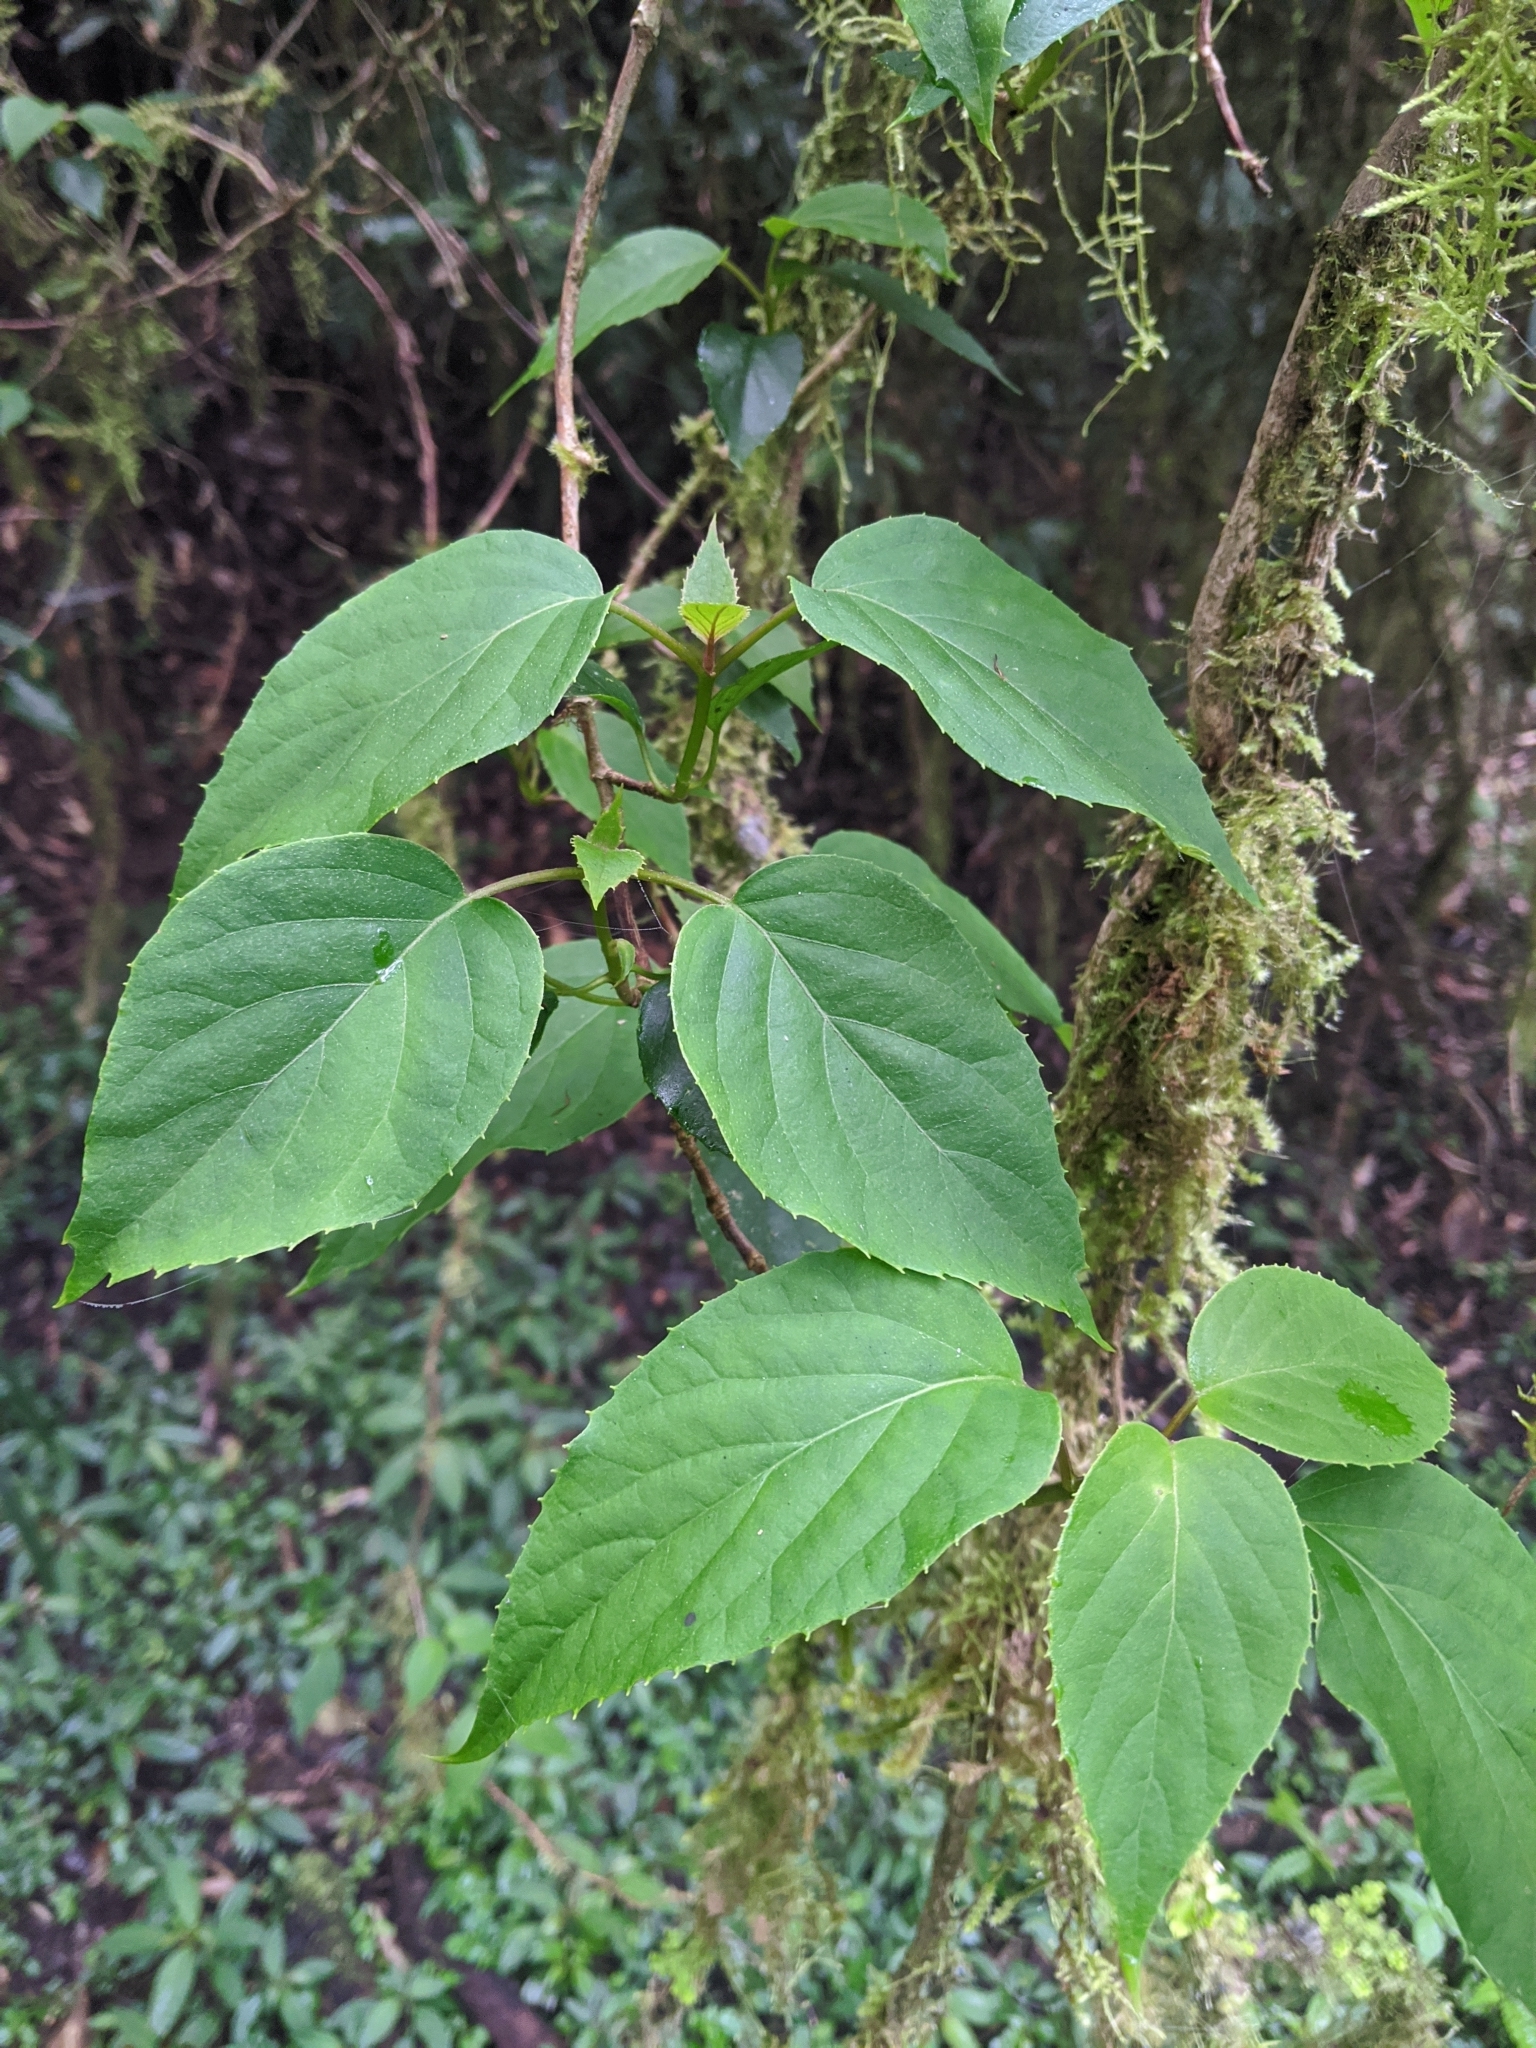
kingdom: Plantae
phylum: Tracheophyta
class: Magnoliopsida
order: Cornales
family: Hydrangeaceae
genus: Hydrangea
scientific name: Hydrangea fauriei
